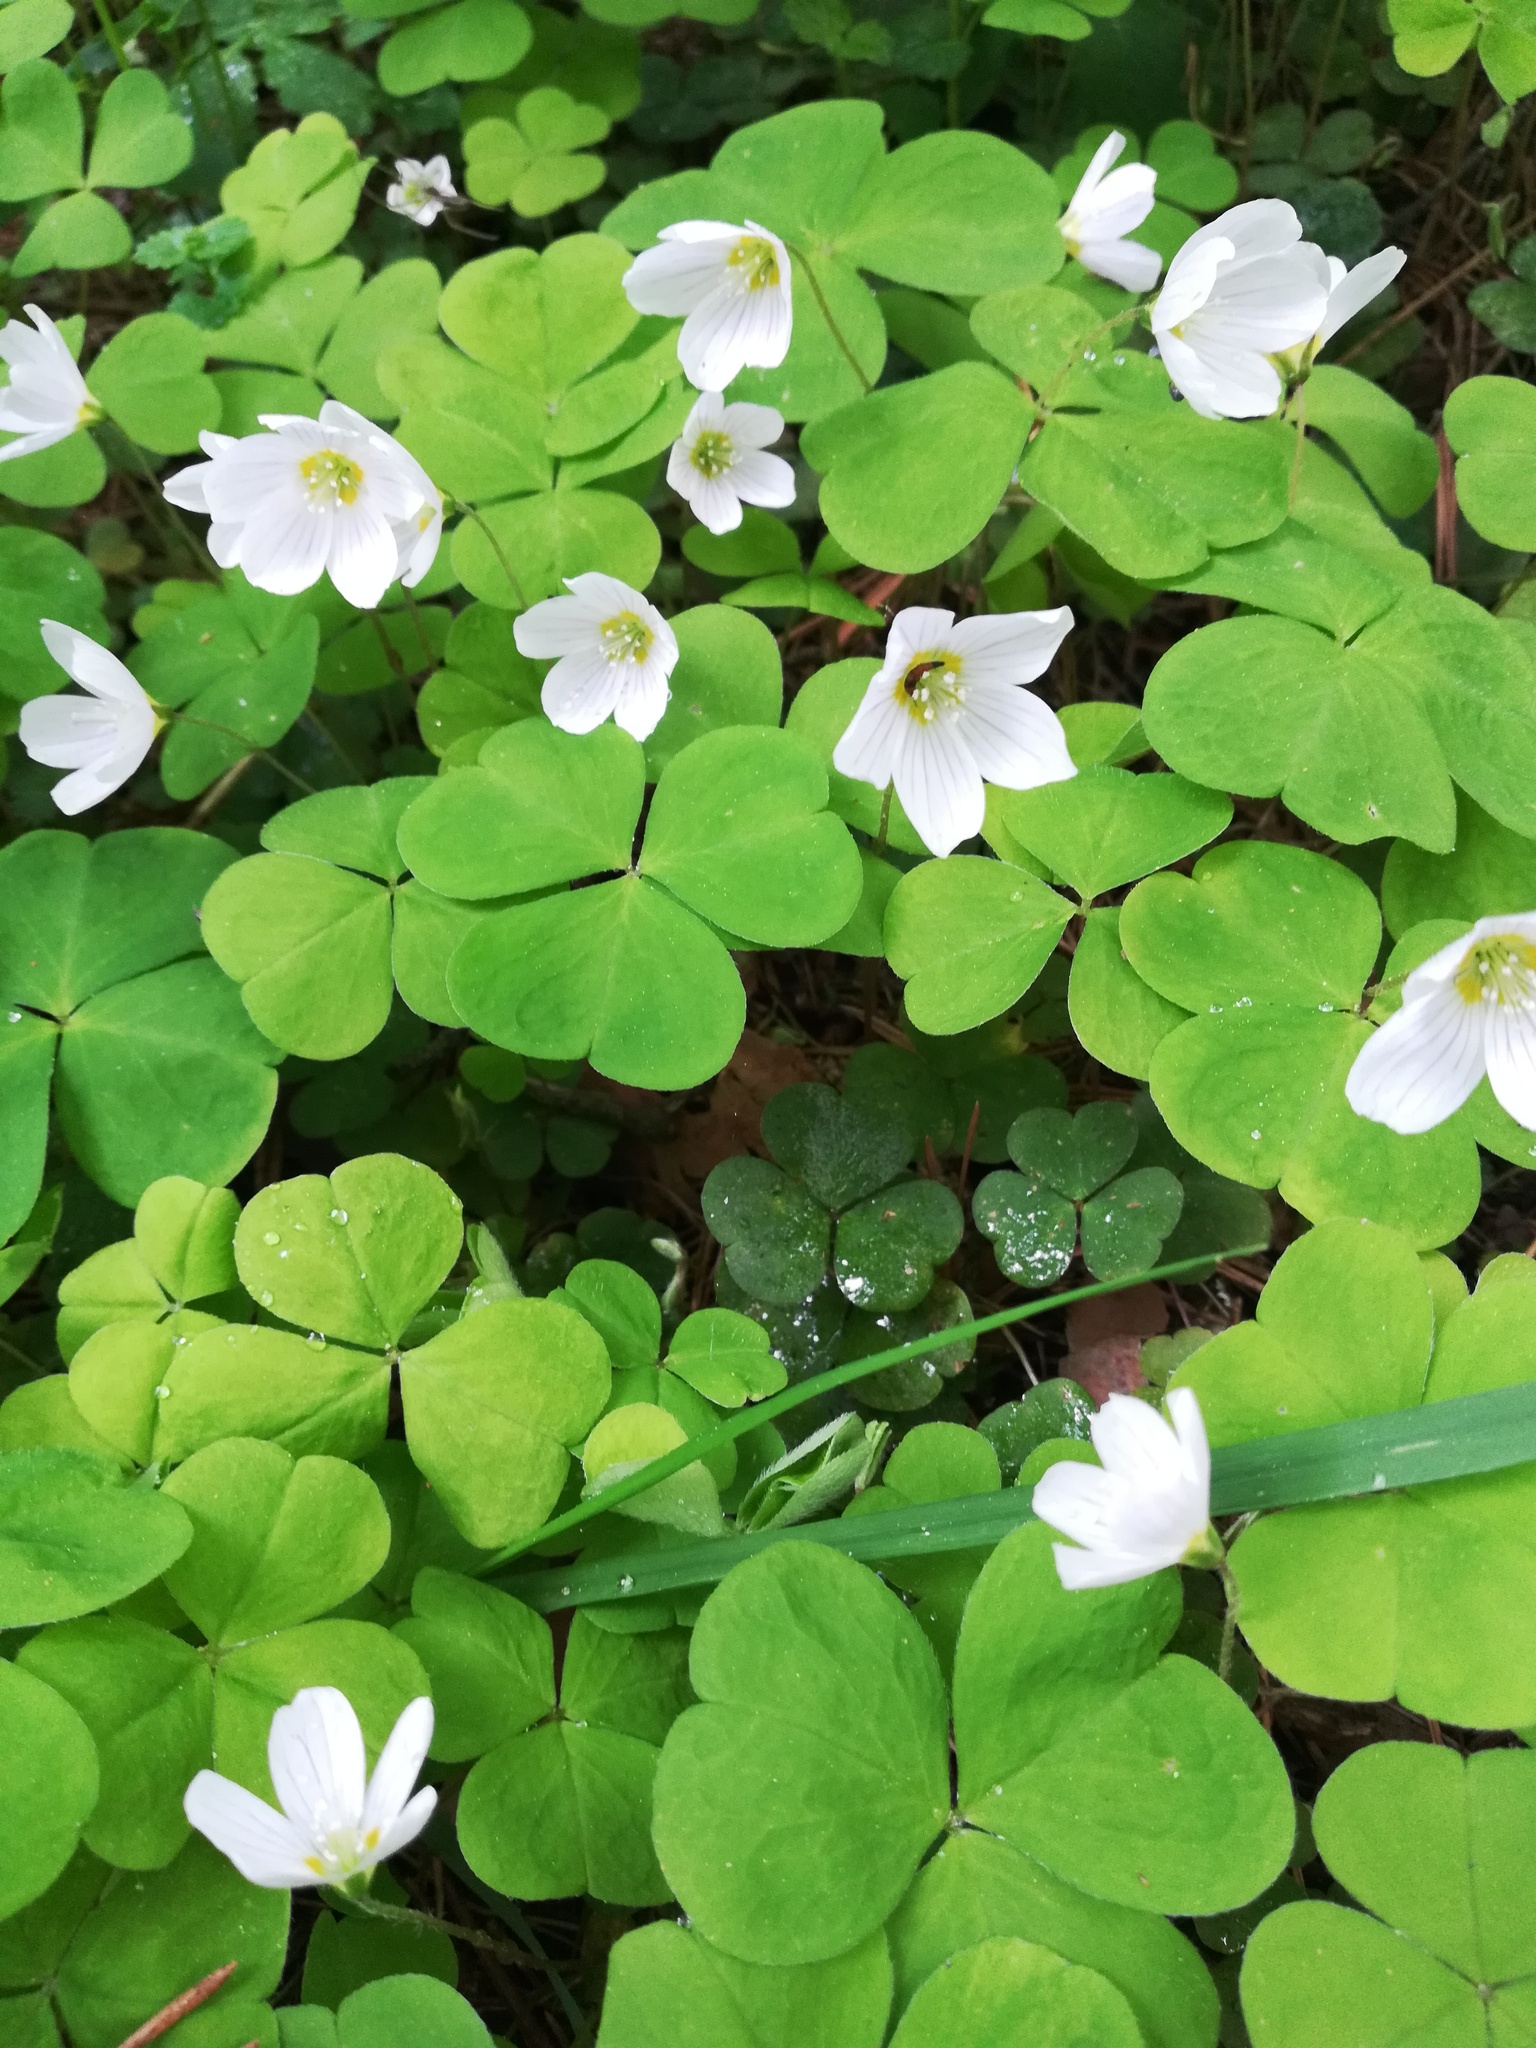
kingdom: Plantae
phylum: Tracheophyta
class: Magnoliopsida
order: Oxalidales
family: Oxalidaceae
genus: Oxalis
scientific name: Oxalis acetosella
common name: Wood-sorrel
